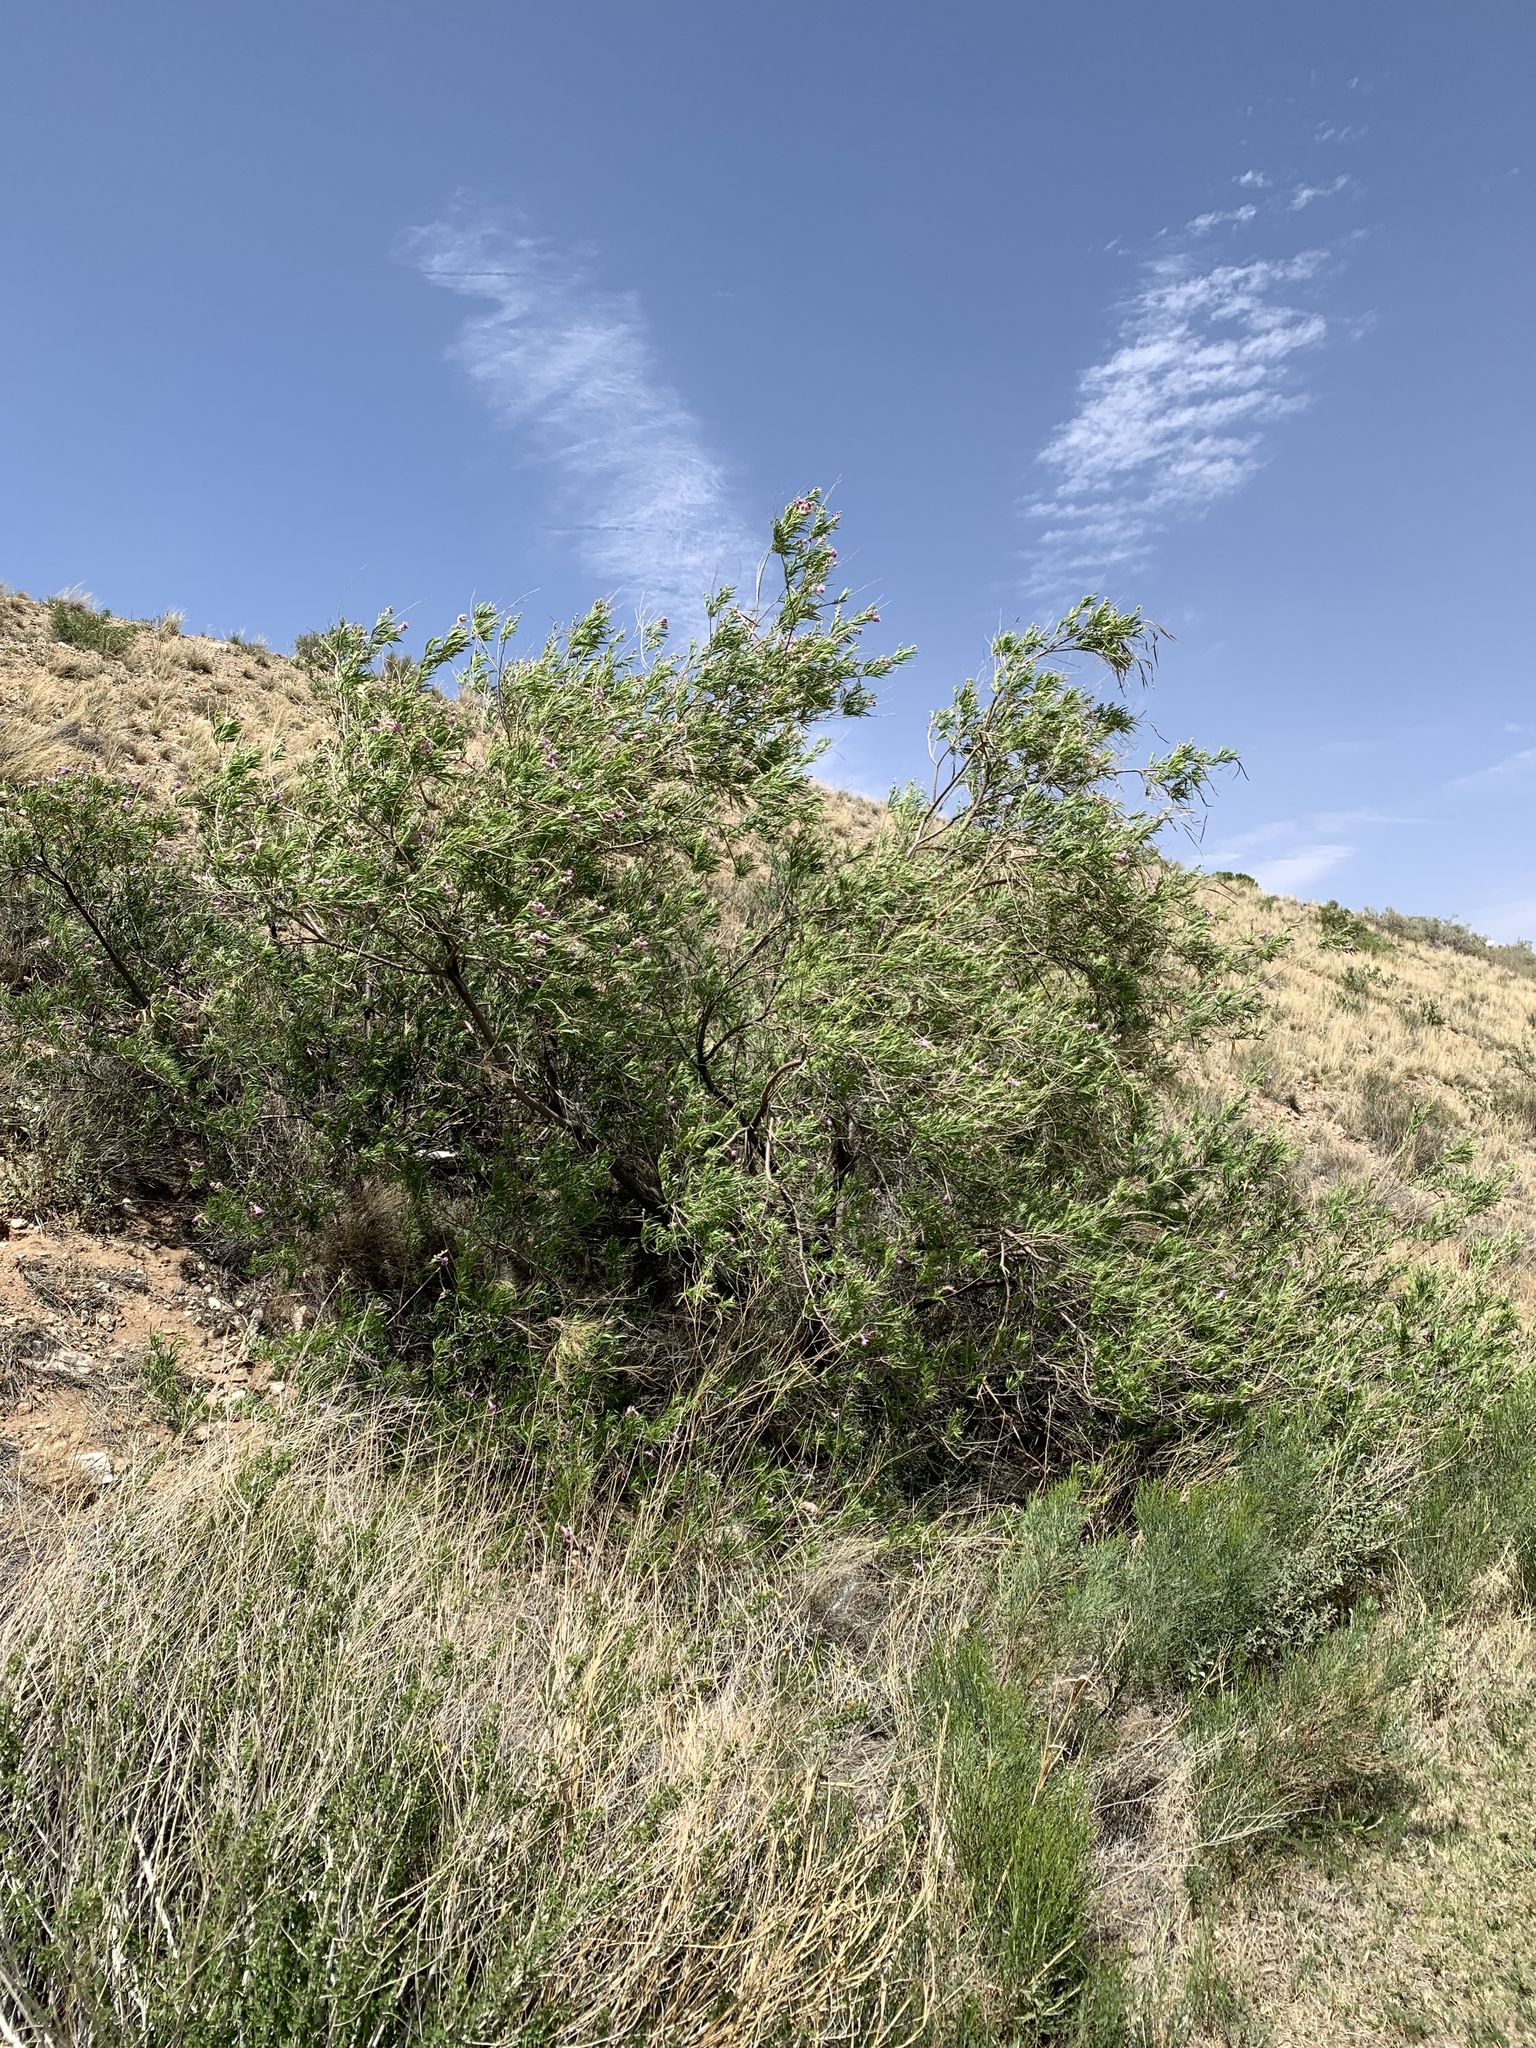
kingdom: Plantae
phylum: Tracheophyta
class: Magnoliopsida
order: Lamiales
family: Bignoniaceae
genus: Chilopsis
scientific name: Chilopsis linearis
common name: Desert-willow
